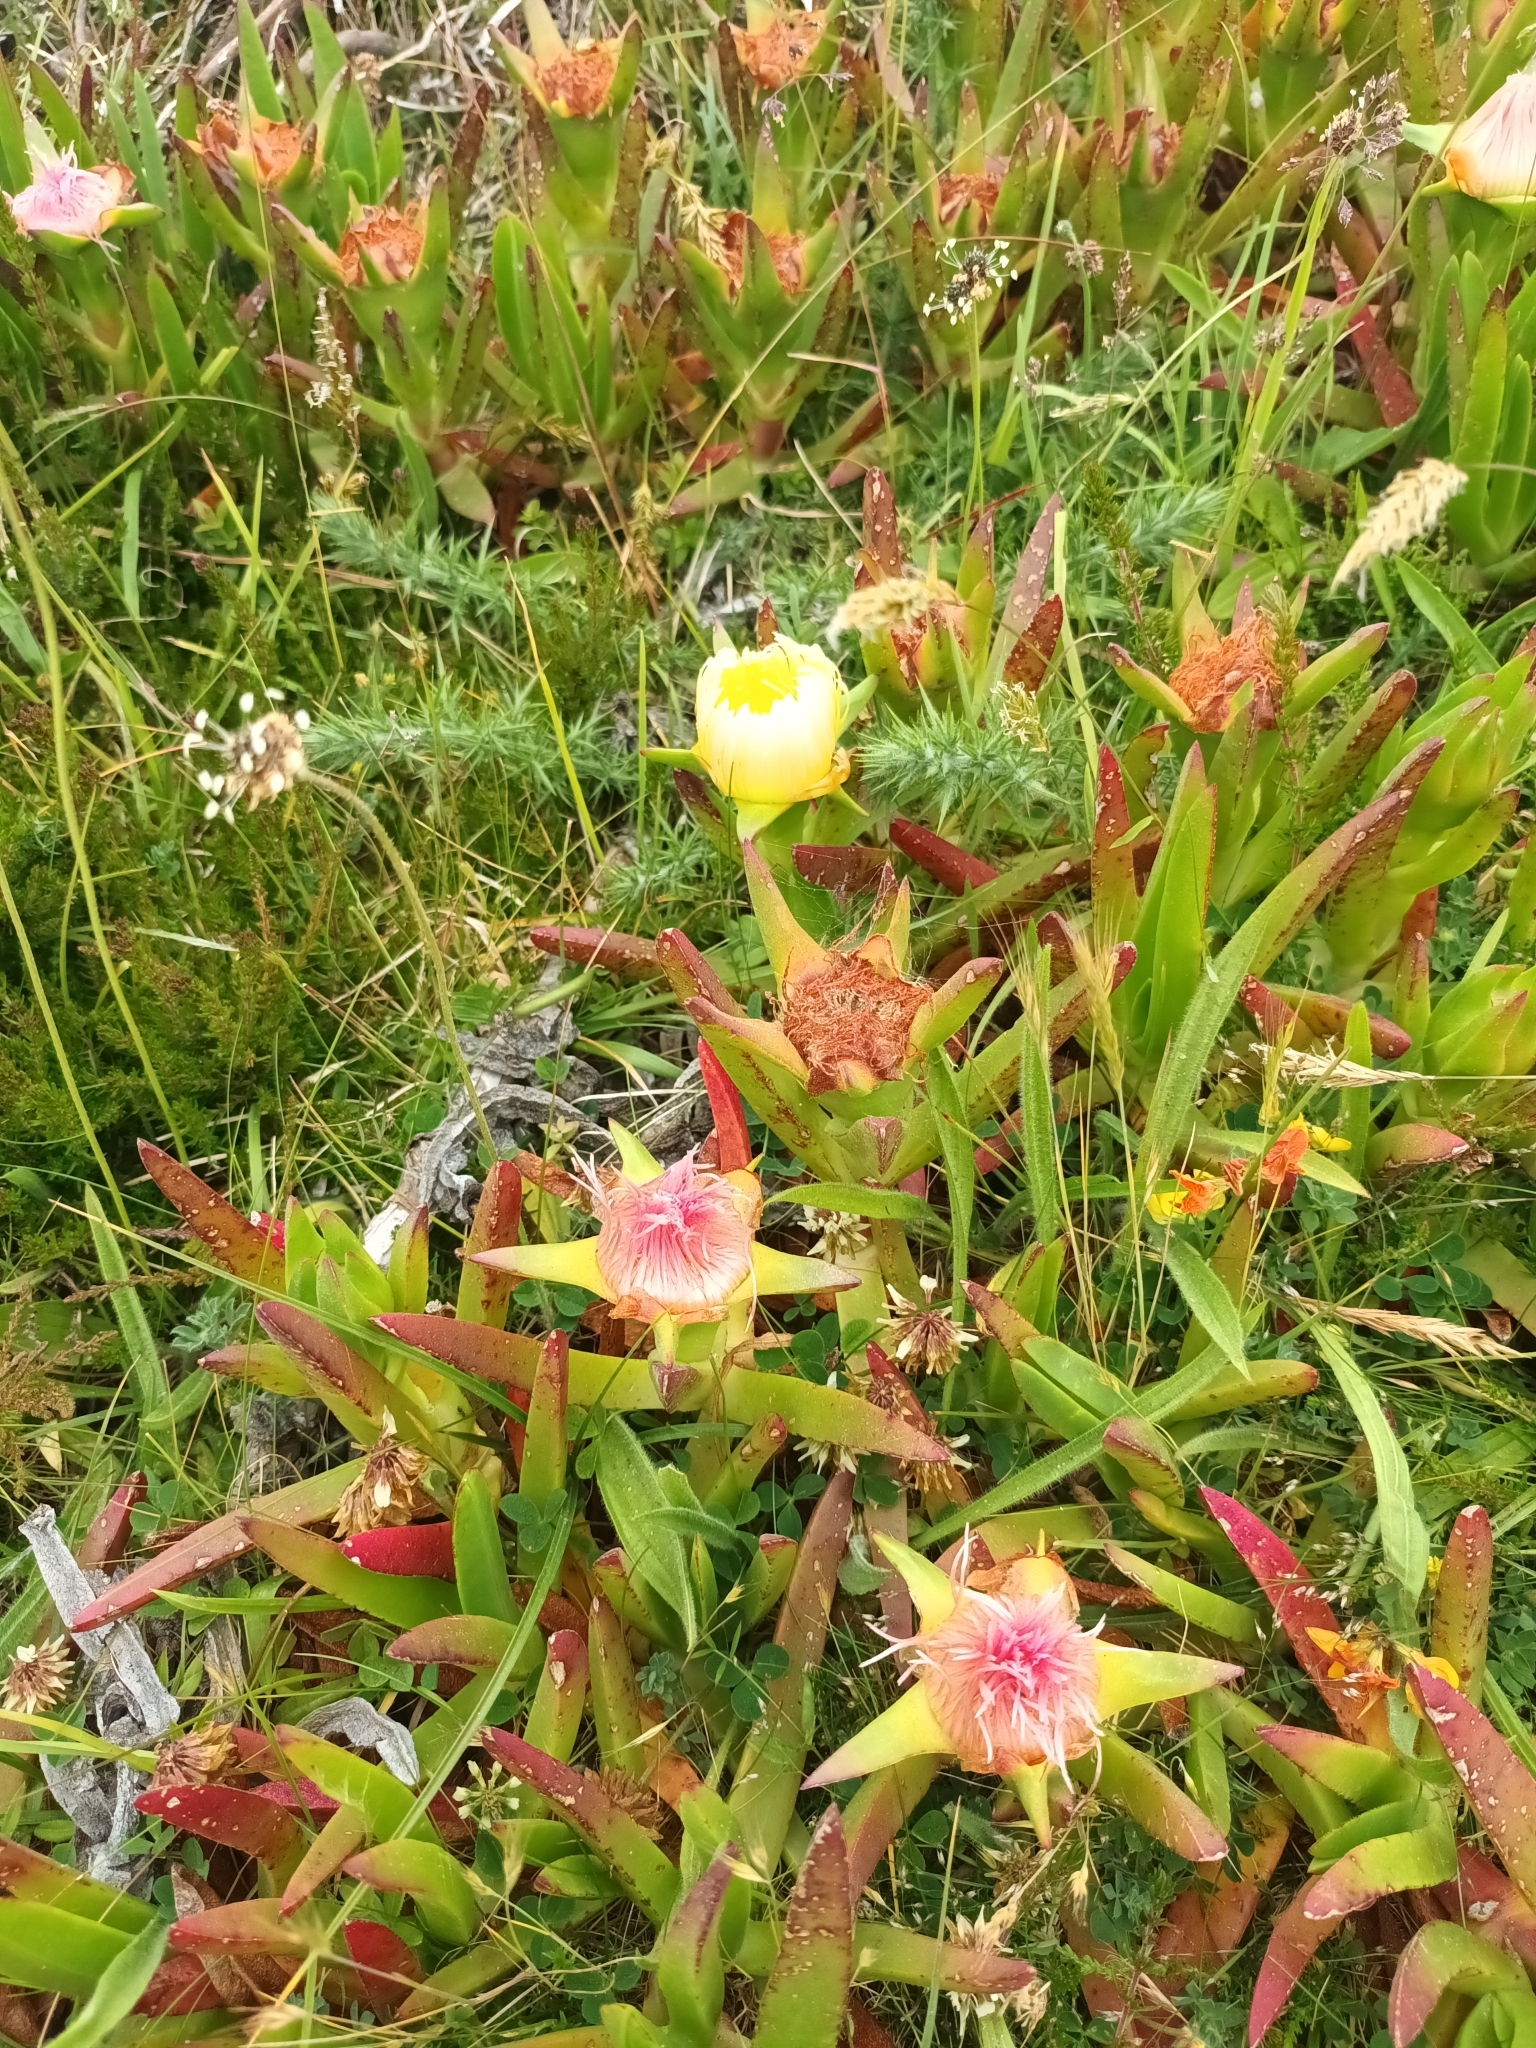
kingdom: Plantae
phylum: Tracheophyta
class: Magnoliopsida
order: Caryophyllales
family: Aizoaceae
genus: Carpobrotus
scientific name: Carpobrotus edulis
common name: Hottentot-fig
